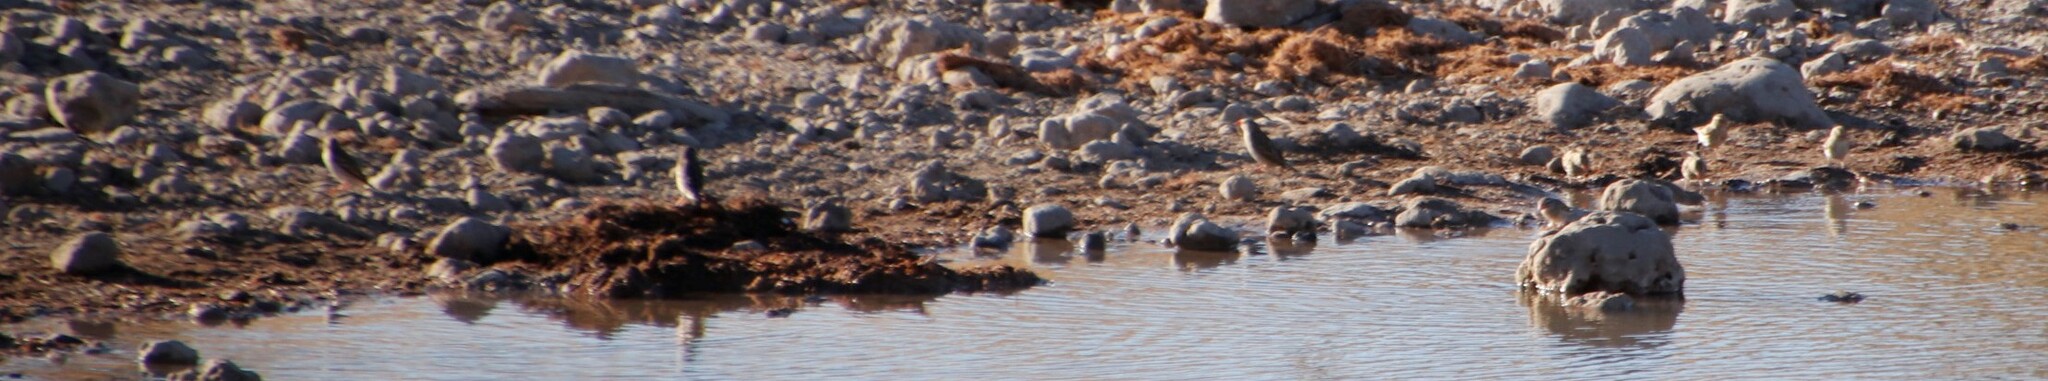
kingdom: Animalia
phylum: Chordata
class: Aves
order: Passeriformes
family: Ploceidae
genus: Quelea
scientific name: Quelea quelea
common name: Red-billed quelea
